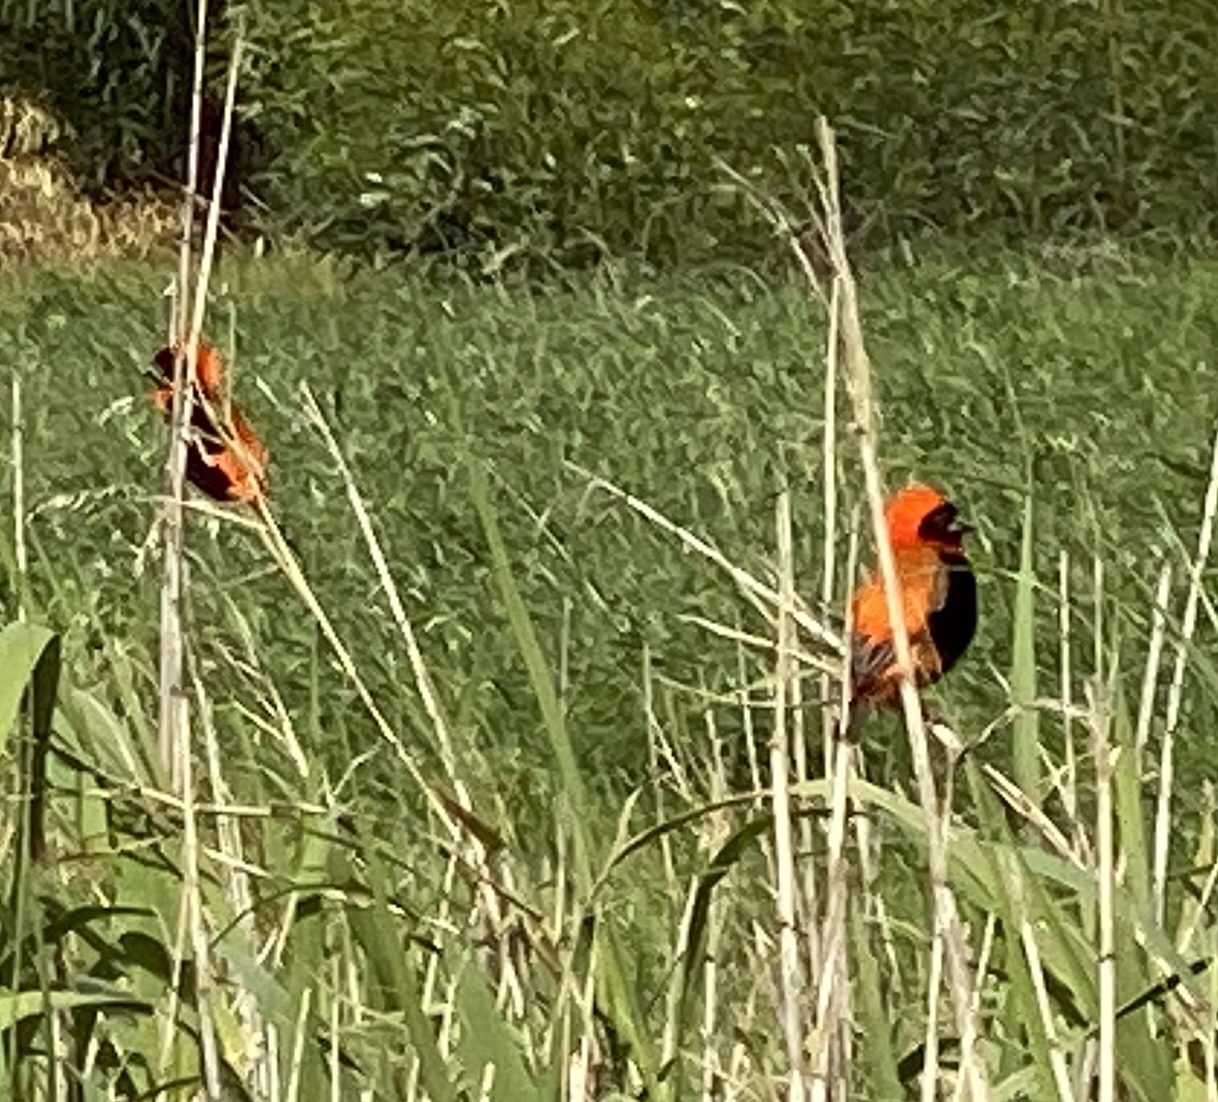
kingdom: Animalia
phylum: Chordata
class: Aves
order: Passeriformes
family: Ploceidae
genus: Euplectes
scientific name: Euplectes orix
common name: Southern red bishop
